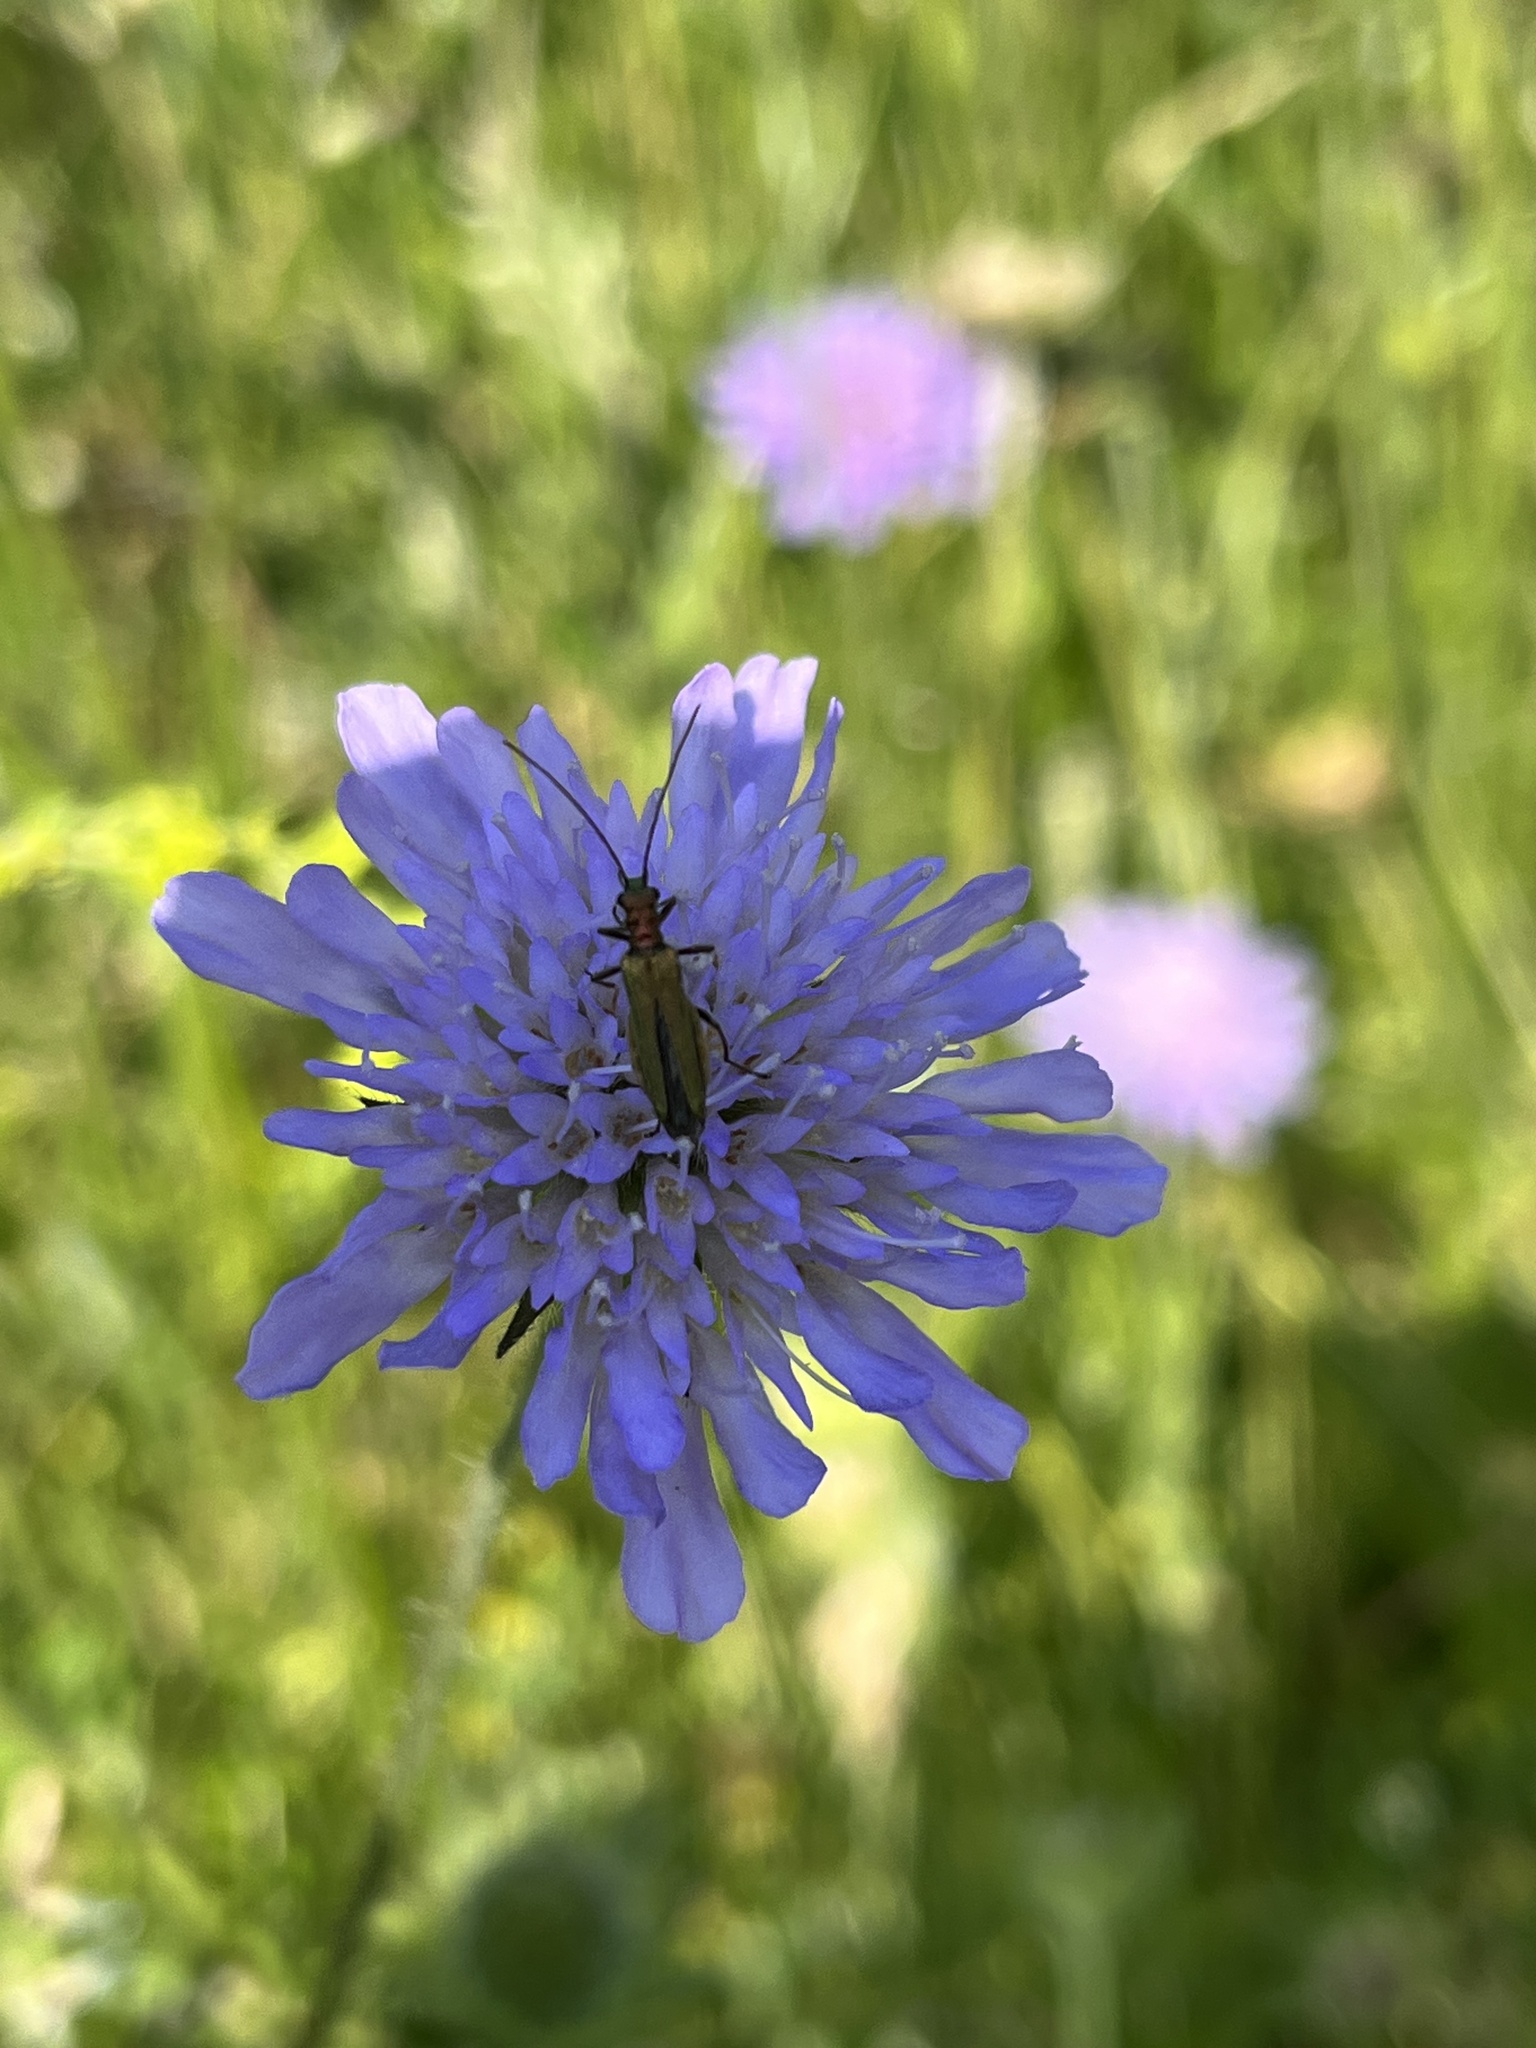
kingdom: Animalia
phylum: Arthropoda
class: Insecta
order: Coleoptera
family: Oedemeridae
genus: Oedemera
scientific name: Oedemera nobilis
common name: Swollen-thighed beetle
